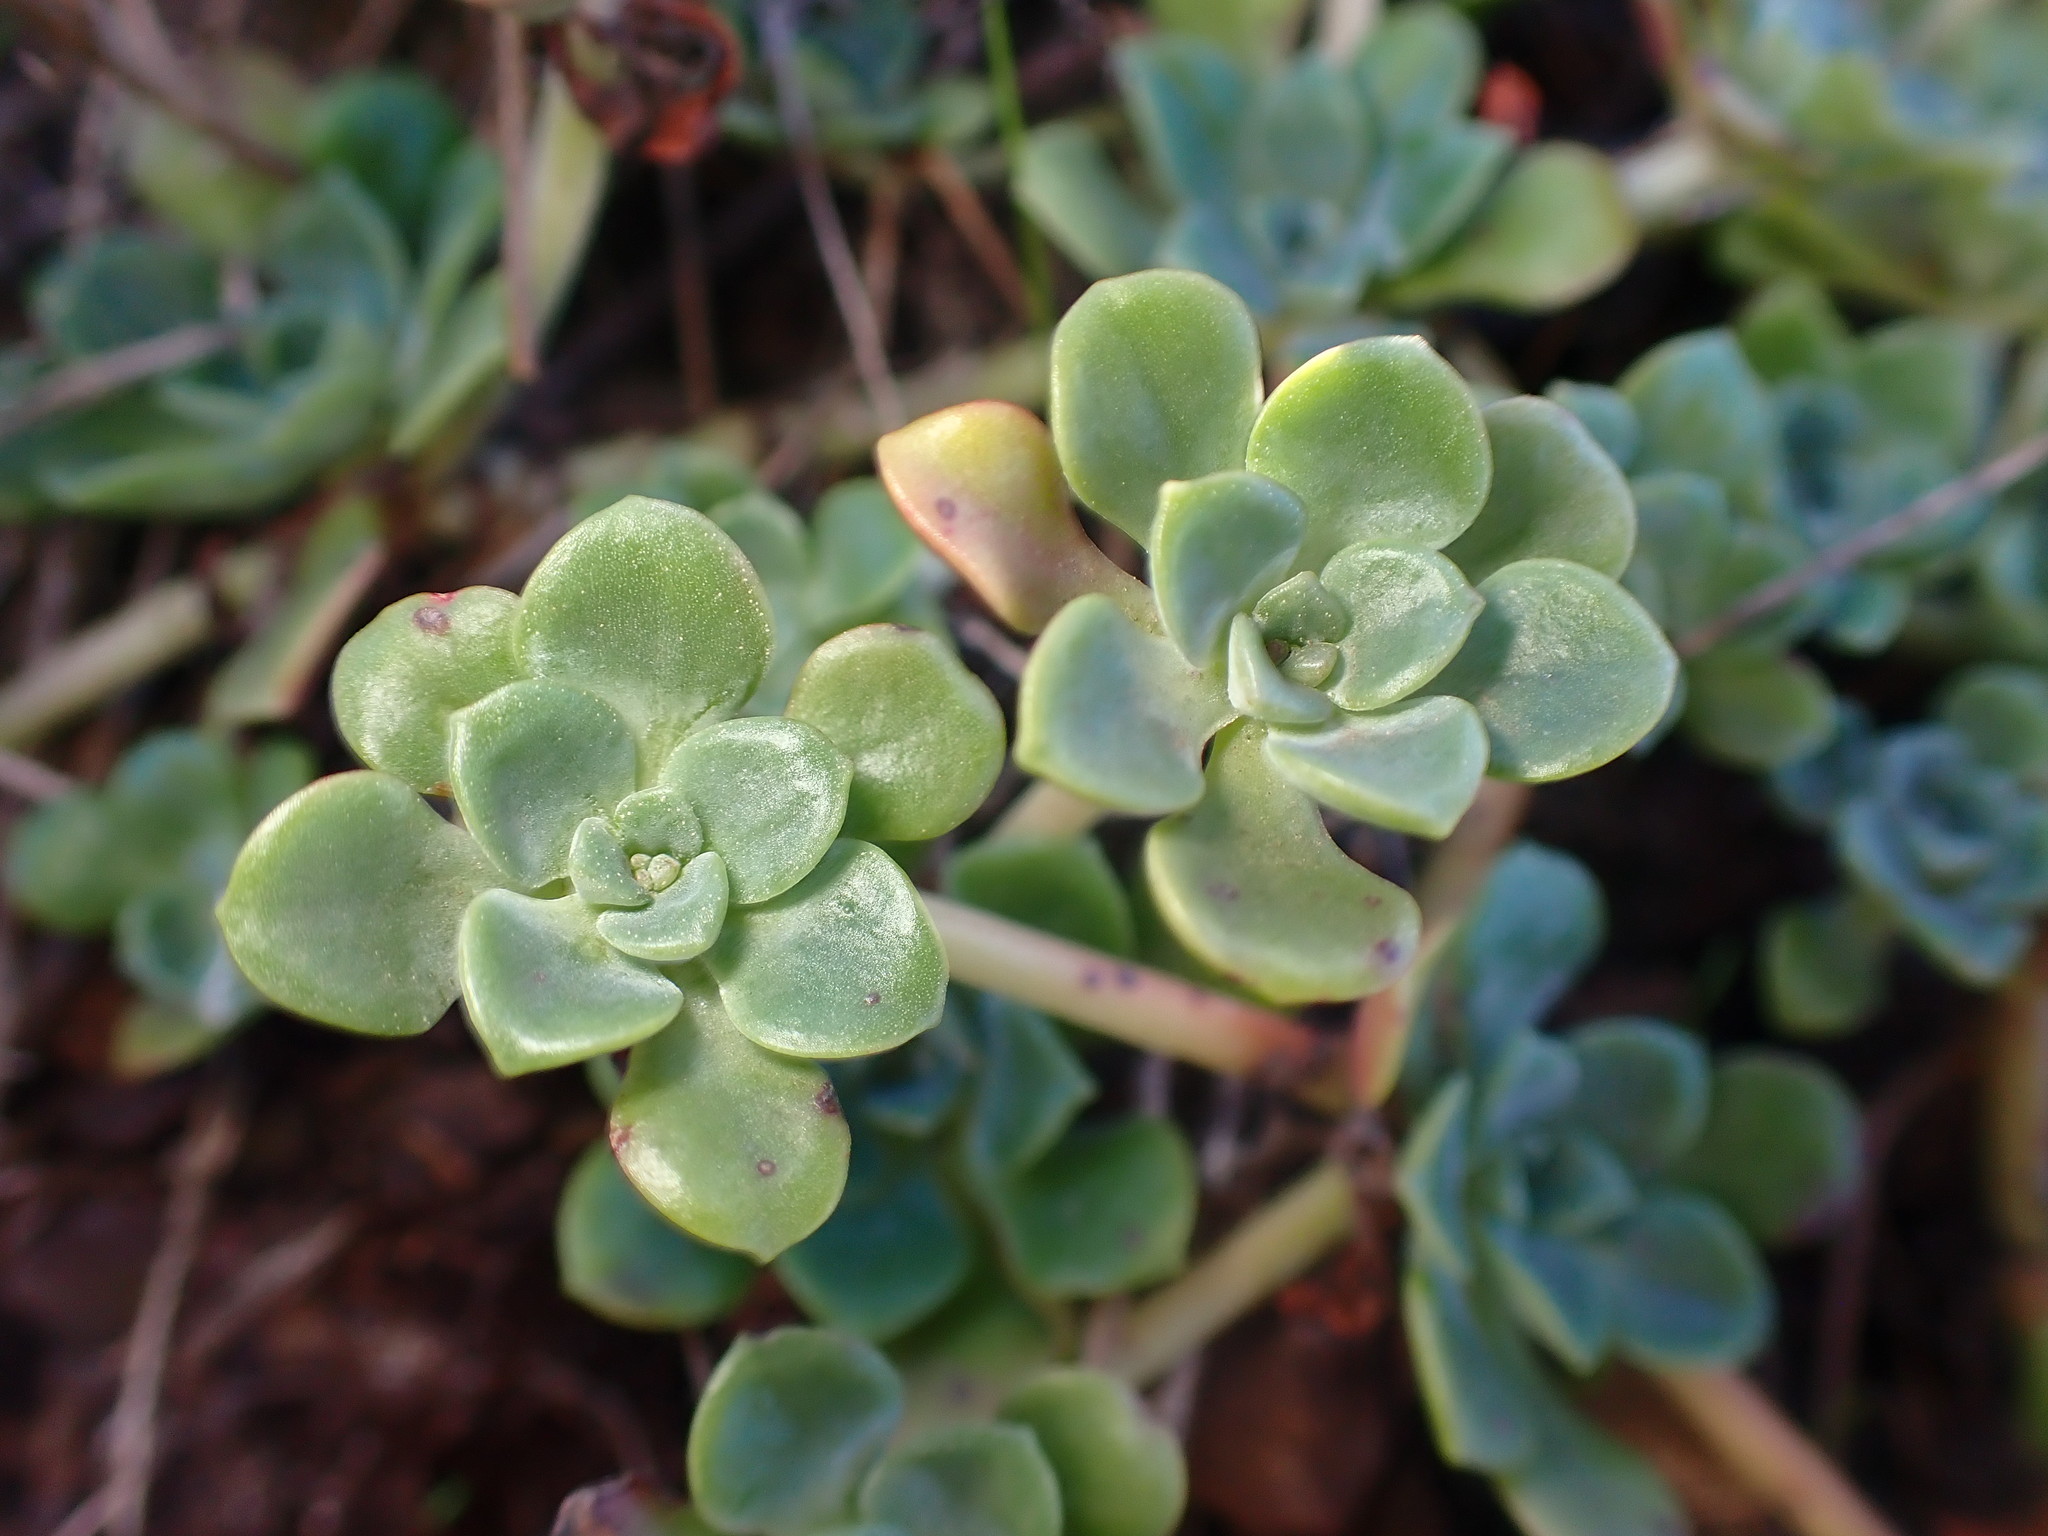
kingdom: Plantae
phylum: Tracheophyta
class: Magnoliopsida
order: Saxifragales
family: Crassulaceae
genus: Sedum
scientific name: Sedum spathulifolium
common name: Colorado stonecrop
